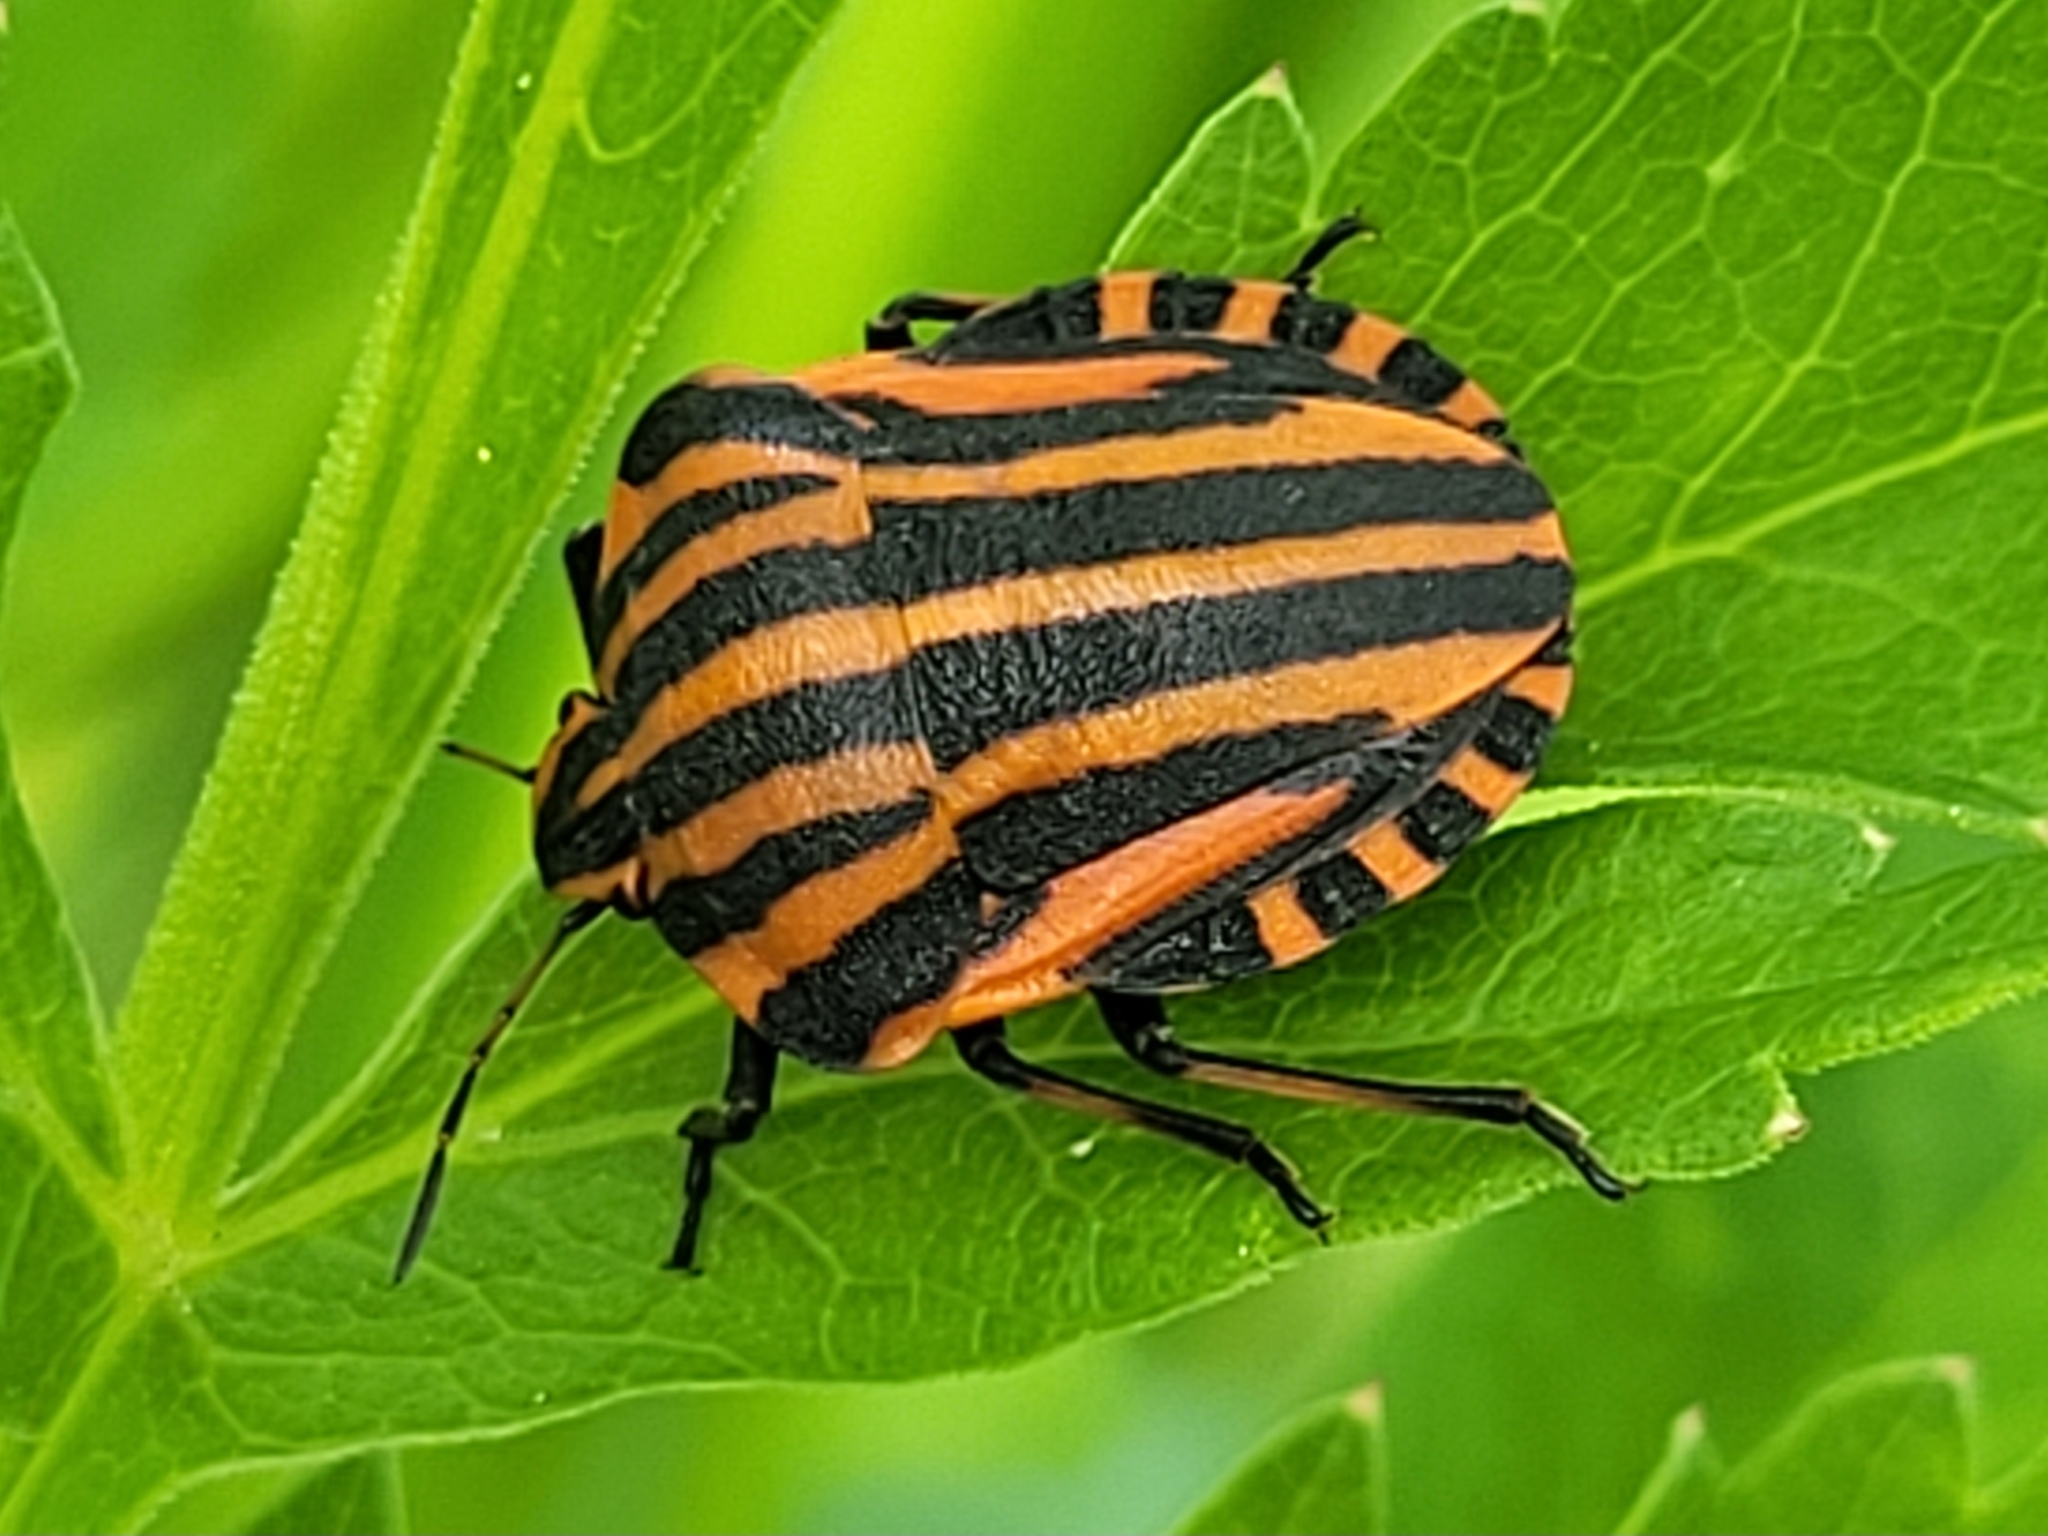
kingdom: Animalia
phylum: Arthropoda
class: Insecta
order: Hemiptera
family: Pentatomidae
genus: Graphosoma
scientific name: Graphosoma italicum
